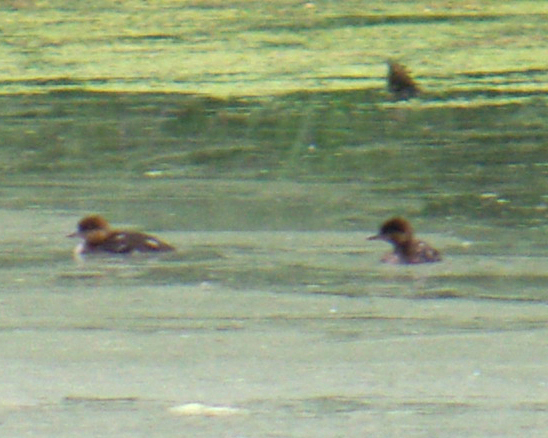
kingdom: Animalia
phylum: Chordata
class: Aves
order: Anseriformes
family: Anatidae
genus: Lophodytes
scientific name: Lophodytes cucullatus
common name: Hooded merganser
